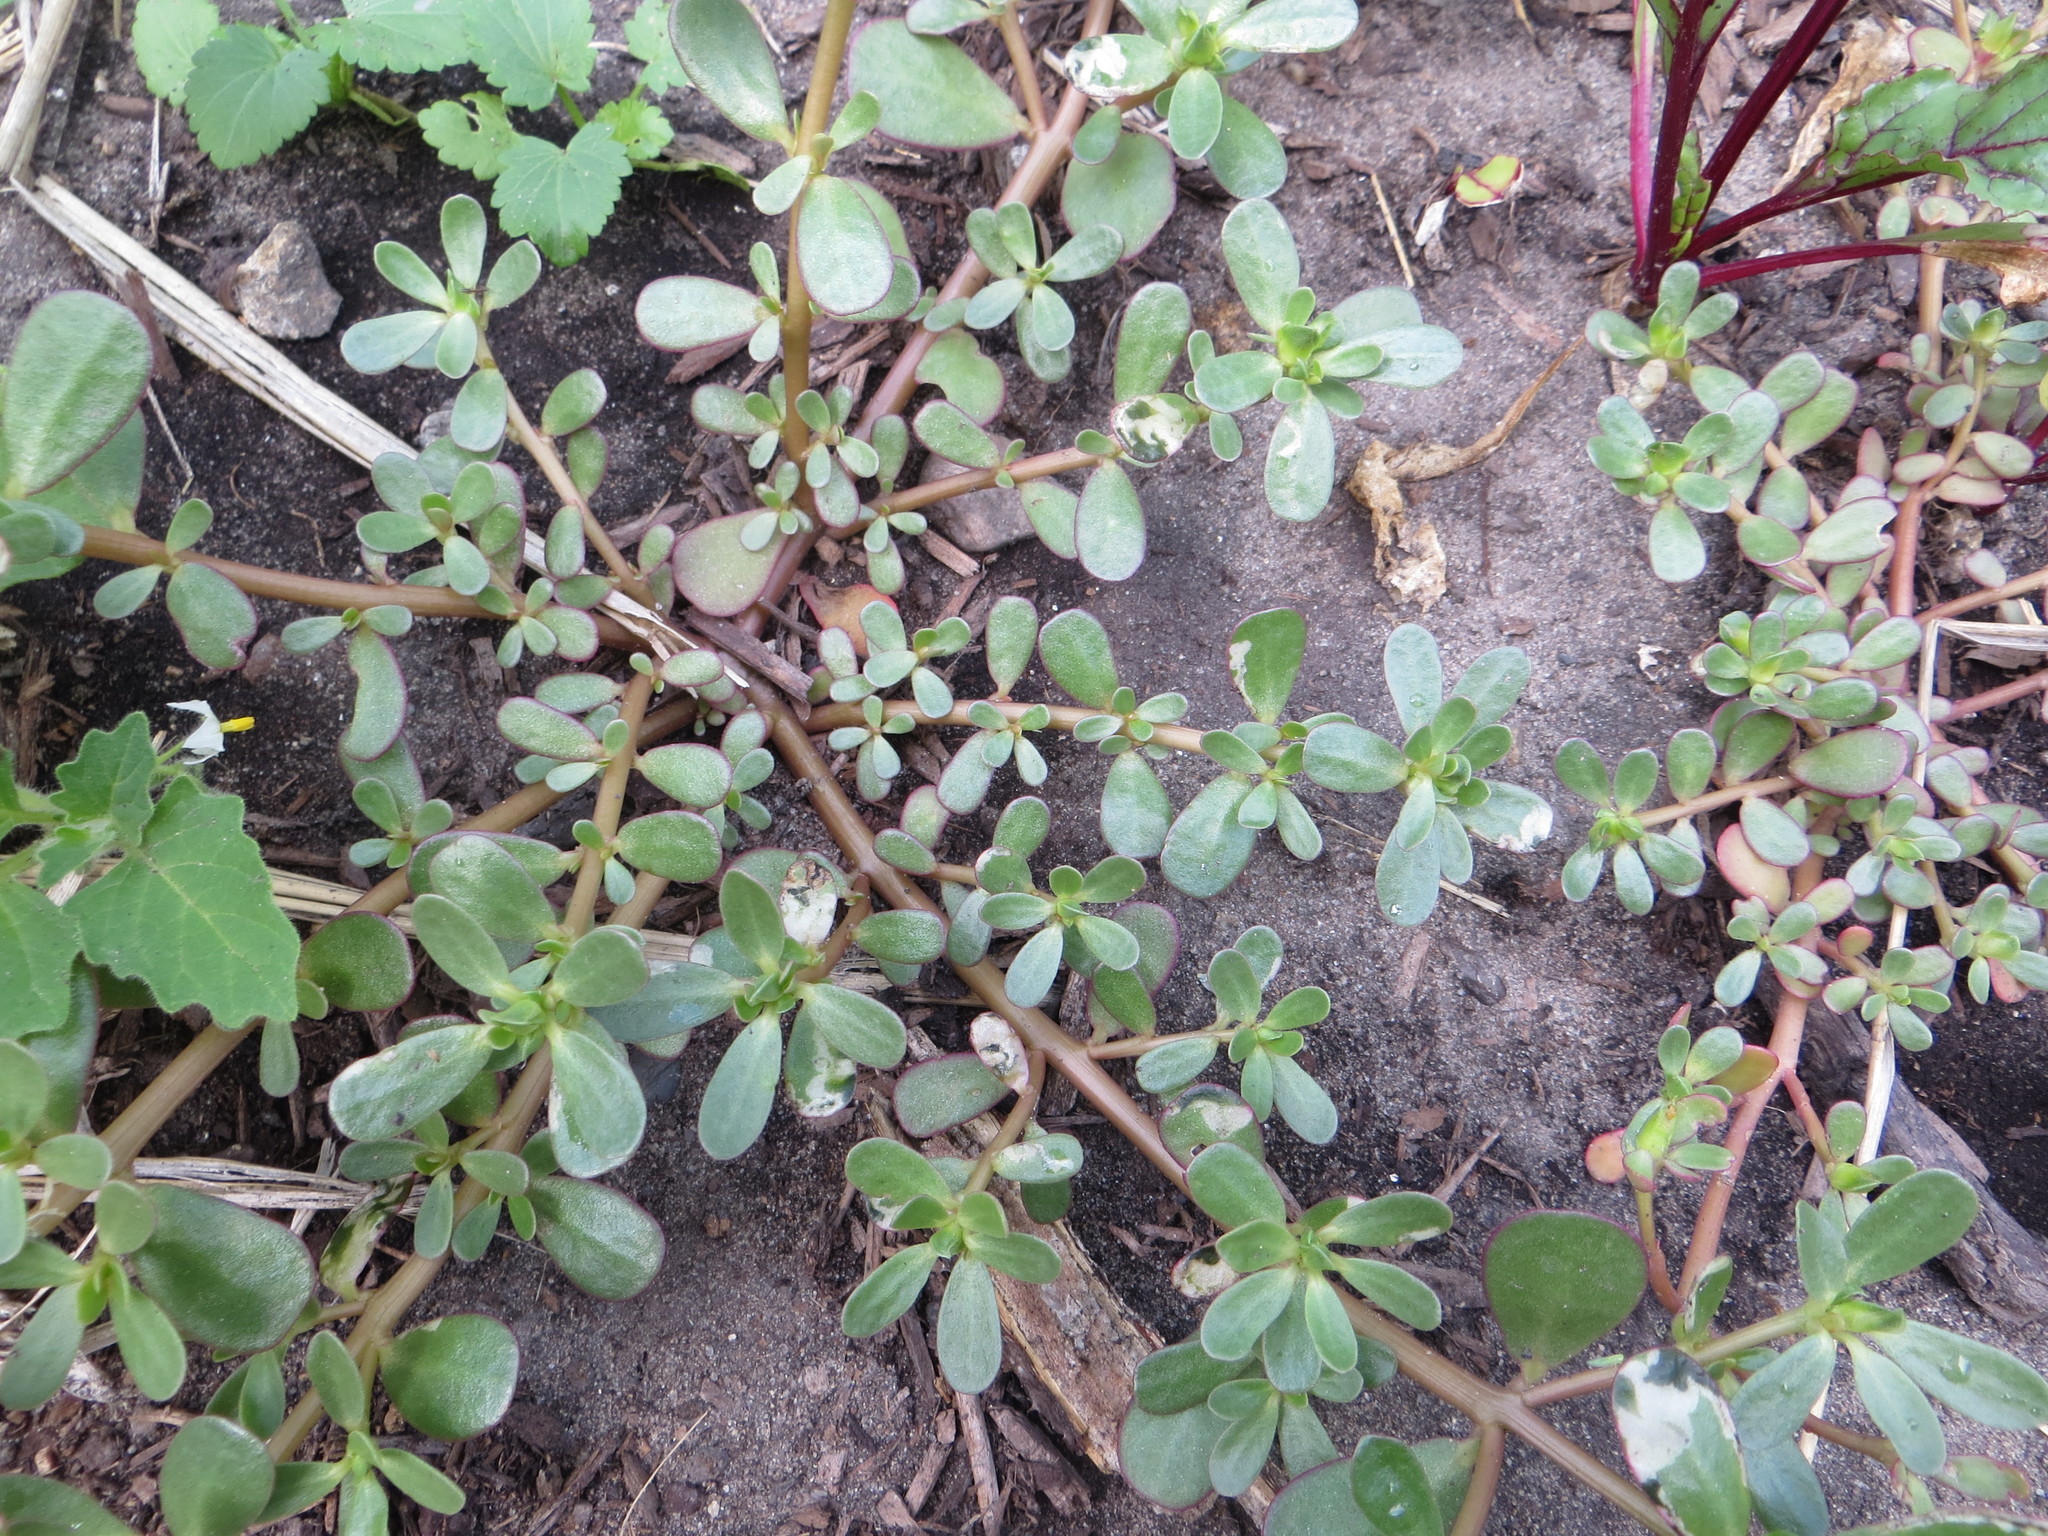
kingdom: Plantae
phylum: Tracheophyta
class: Magnoliopsida
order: Caryophyllales
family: Portulacaceae
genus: Portulaca
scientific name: Portulaca oleracea
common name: Common purslane
